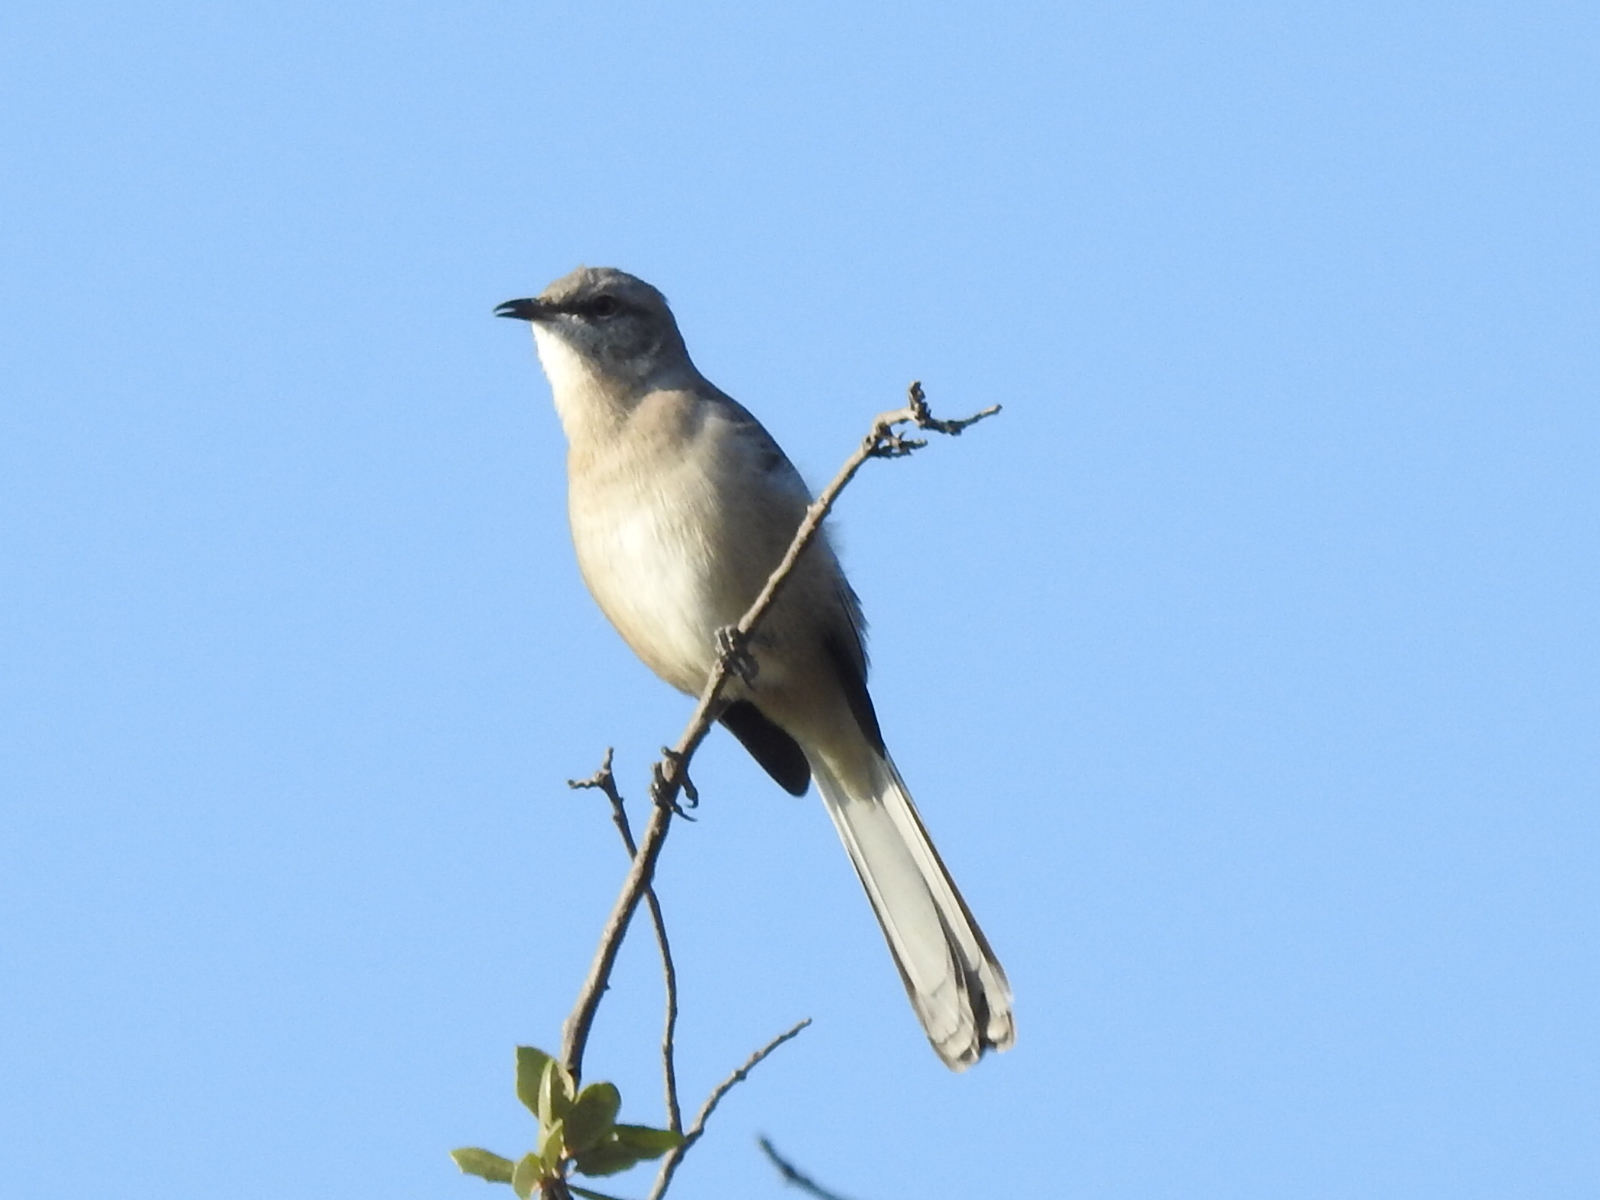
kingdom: Animalia
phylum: Chordata
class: Aves
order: Passeriformes
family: Mimidae
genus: Mimus
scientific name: Mimus polyglottos
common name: Northern mockingbird
